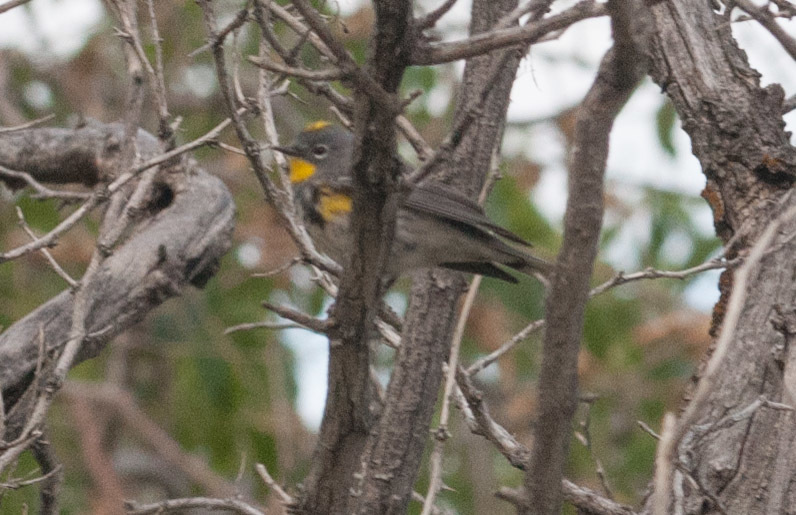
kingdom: Animalia
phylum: Chordata
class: Aves
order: Passeriformes
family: Parulidae
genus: Setophaga
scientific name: Setophaga coronata
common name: Myrtle warbler
